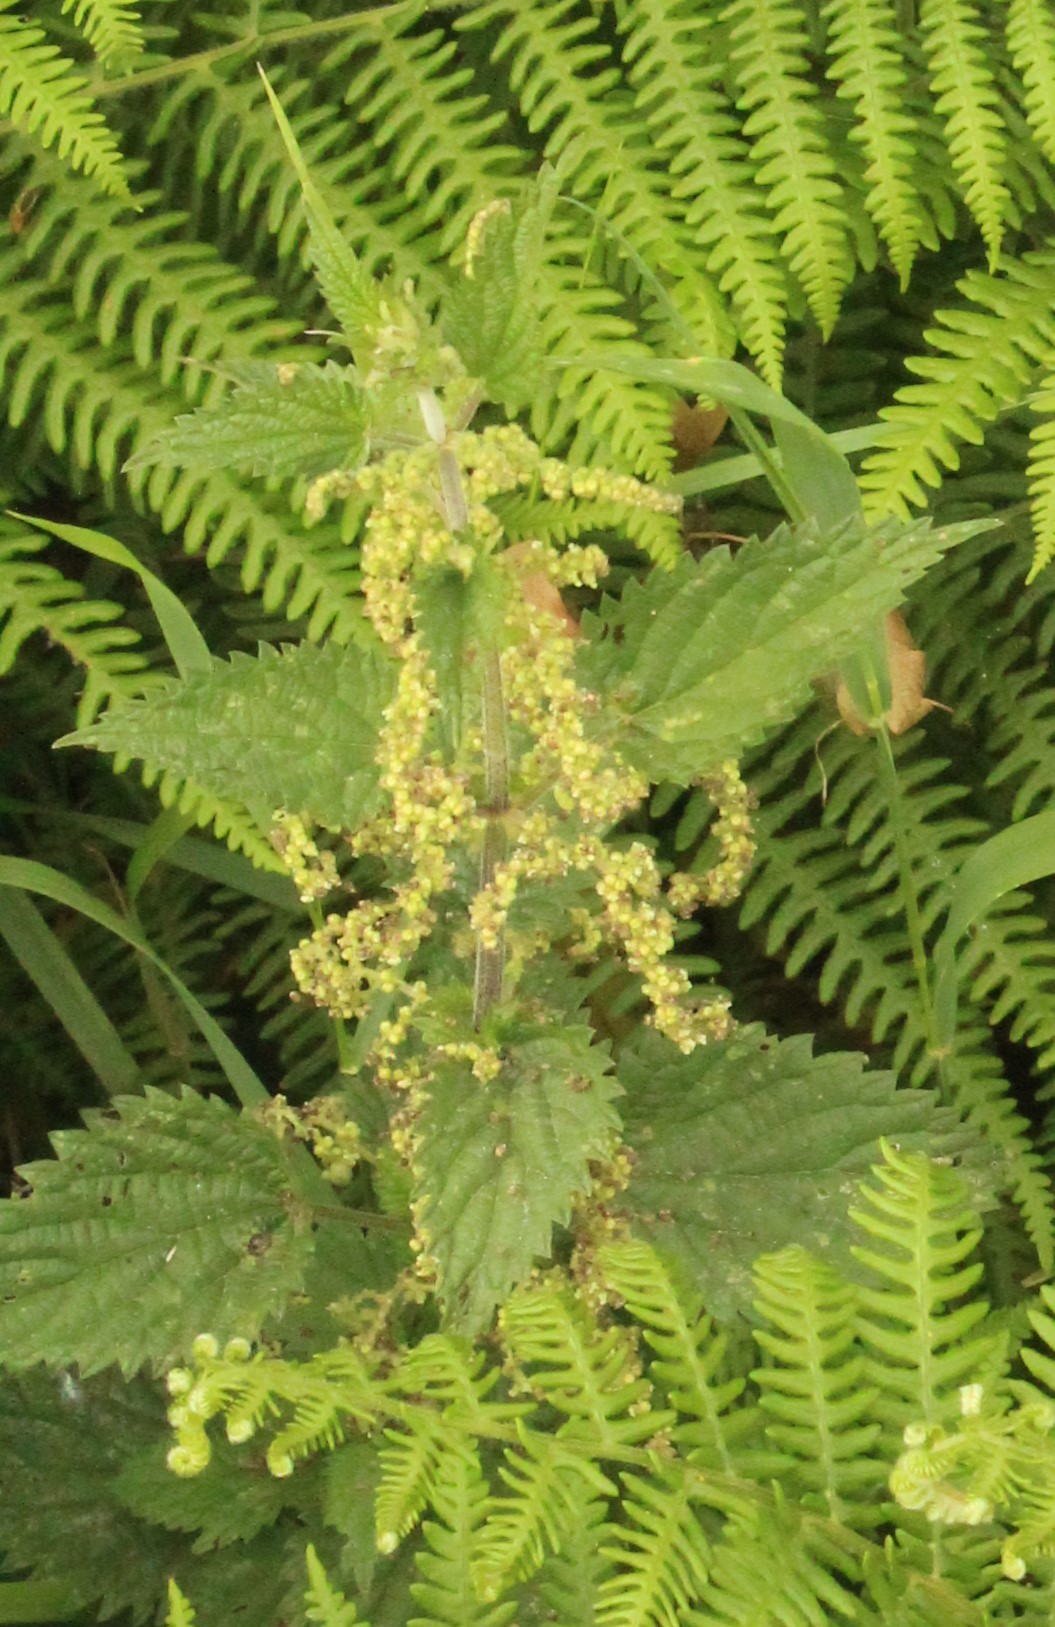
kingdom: Plantae
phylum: Tracheophyta
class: Magnoliopsida
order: Rosales
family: Urticaceae
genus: Urtica
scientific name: Urtica dioica
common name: Common nettle
